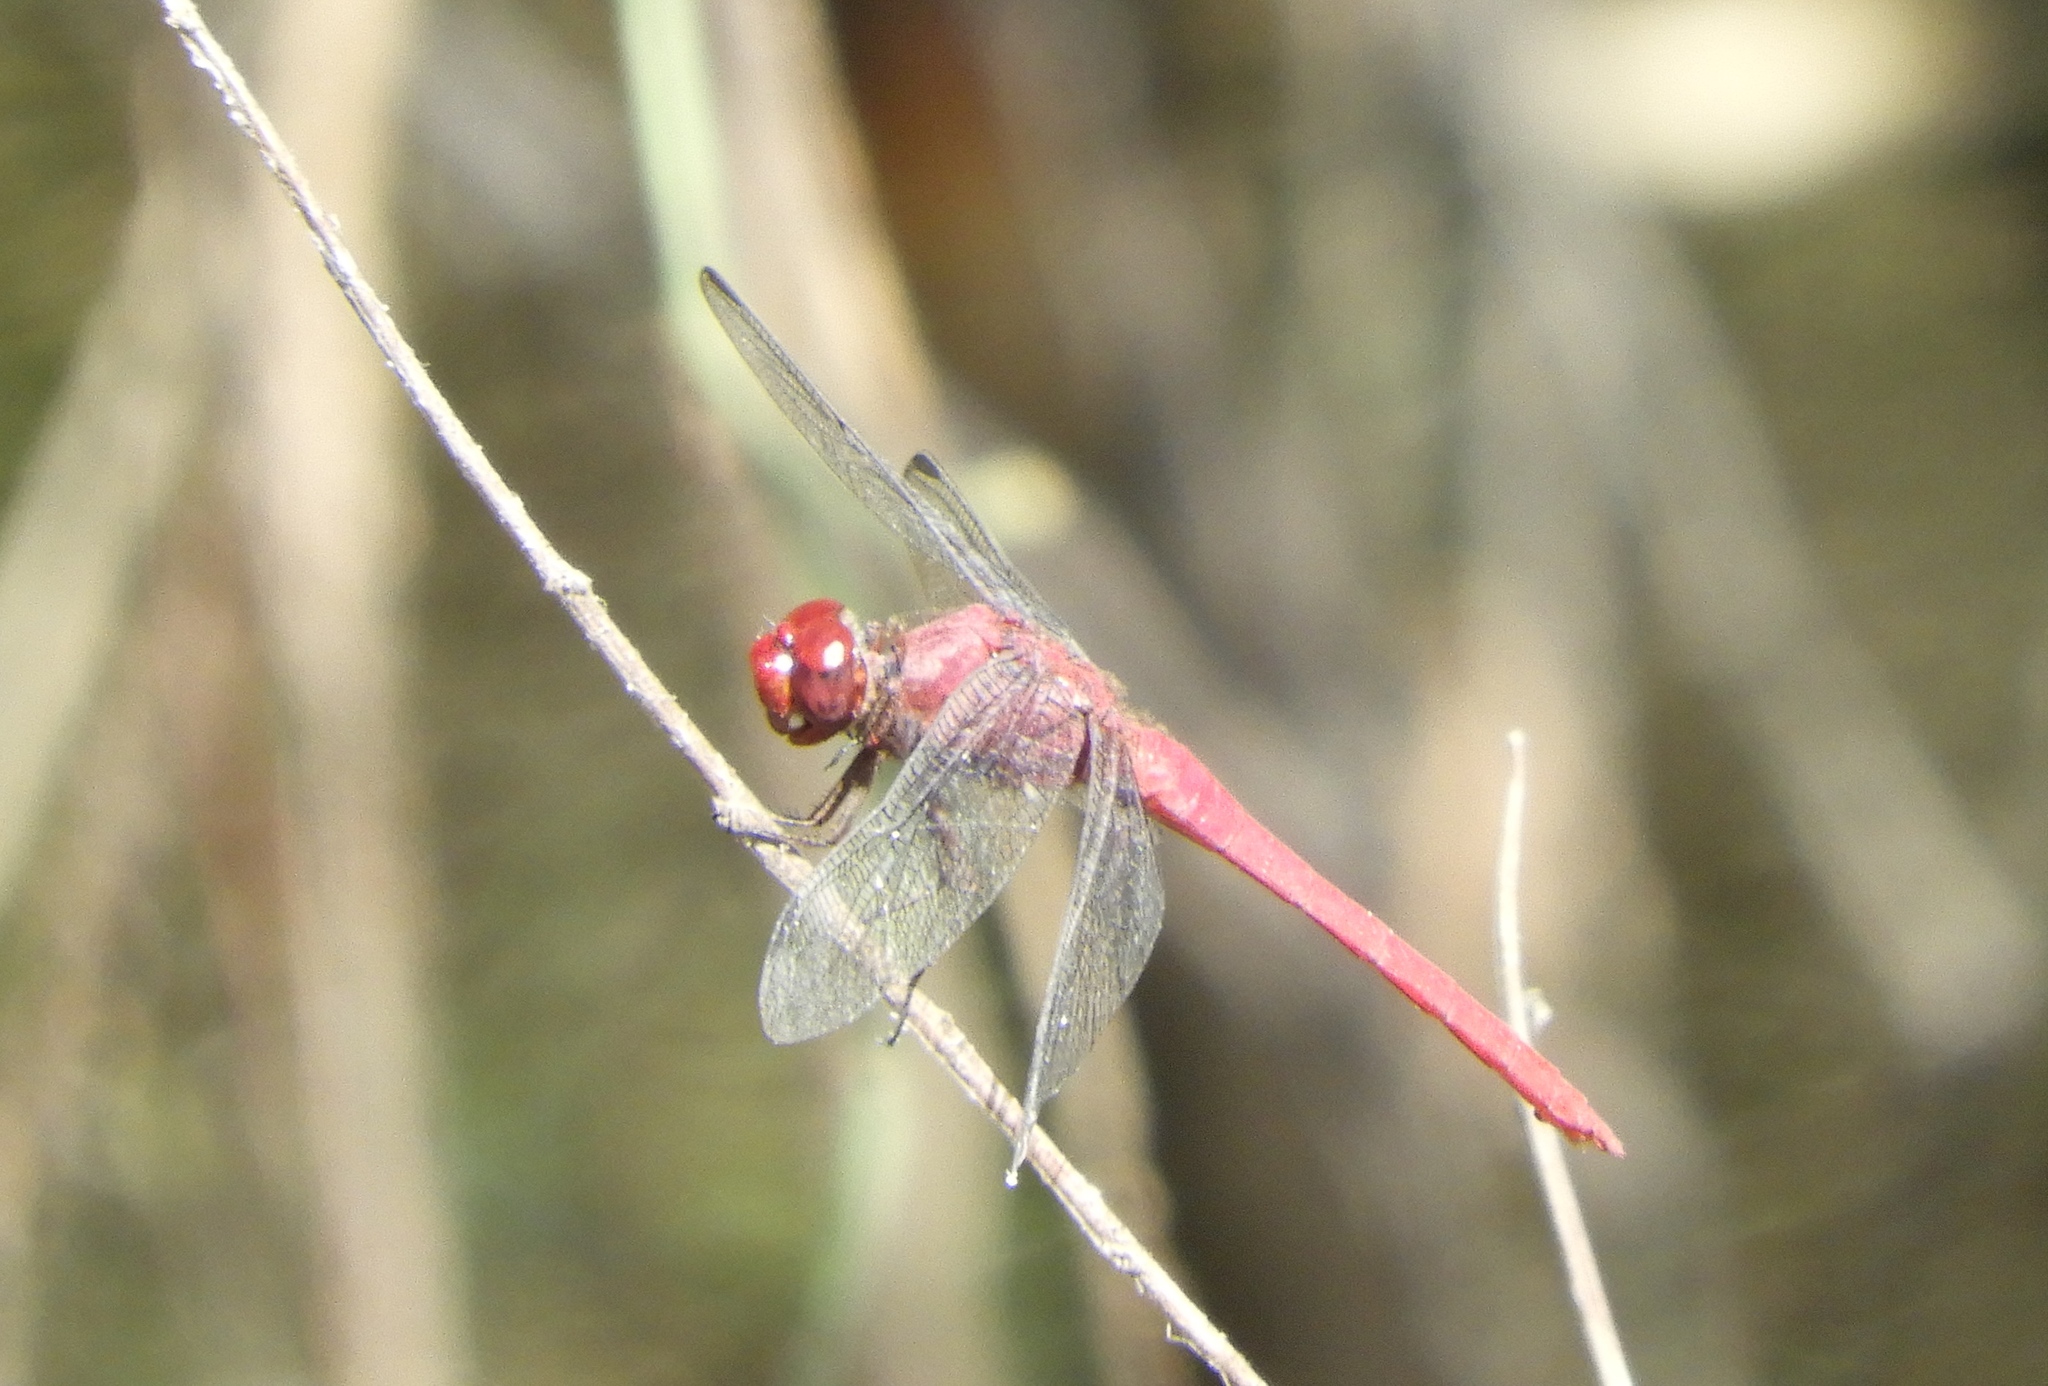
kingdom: Animalia
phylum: Arthropoda
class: Insecta
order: Odonata
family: Libellulidae
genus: Orthemis
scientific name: Orthemis
